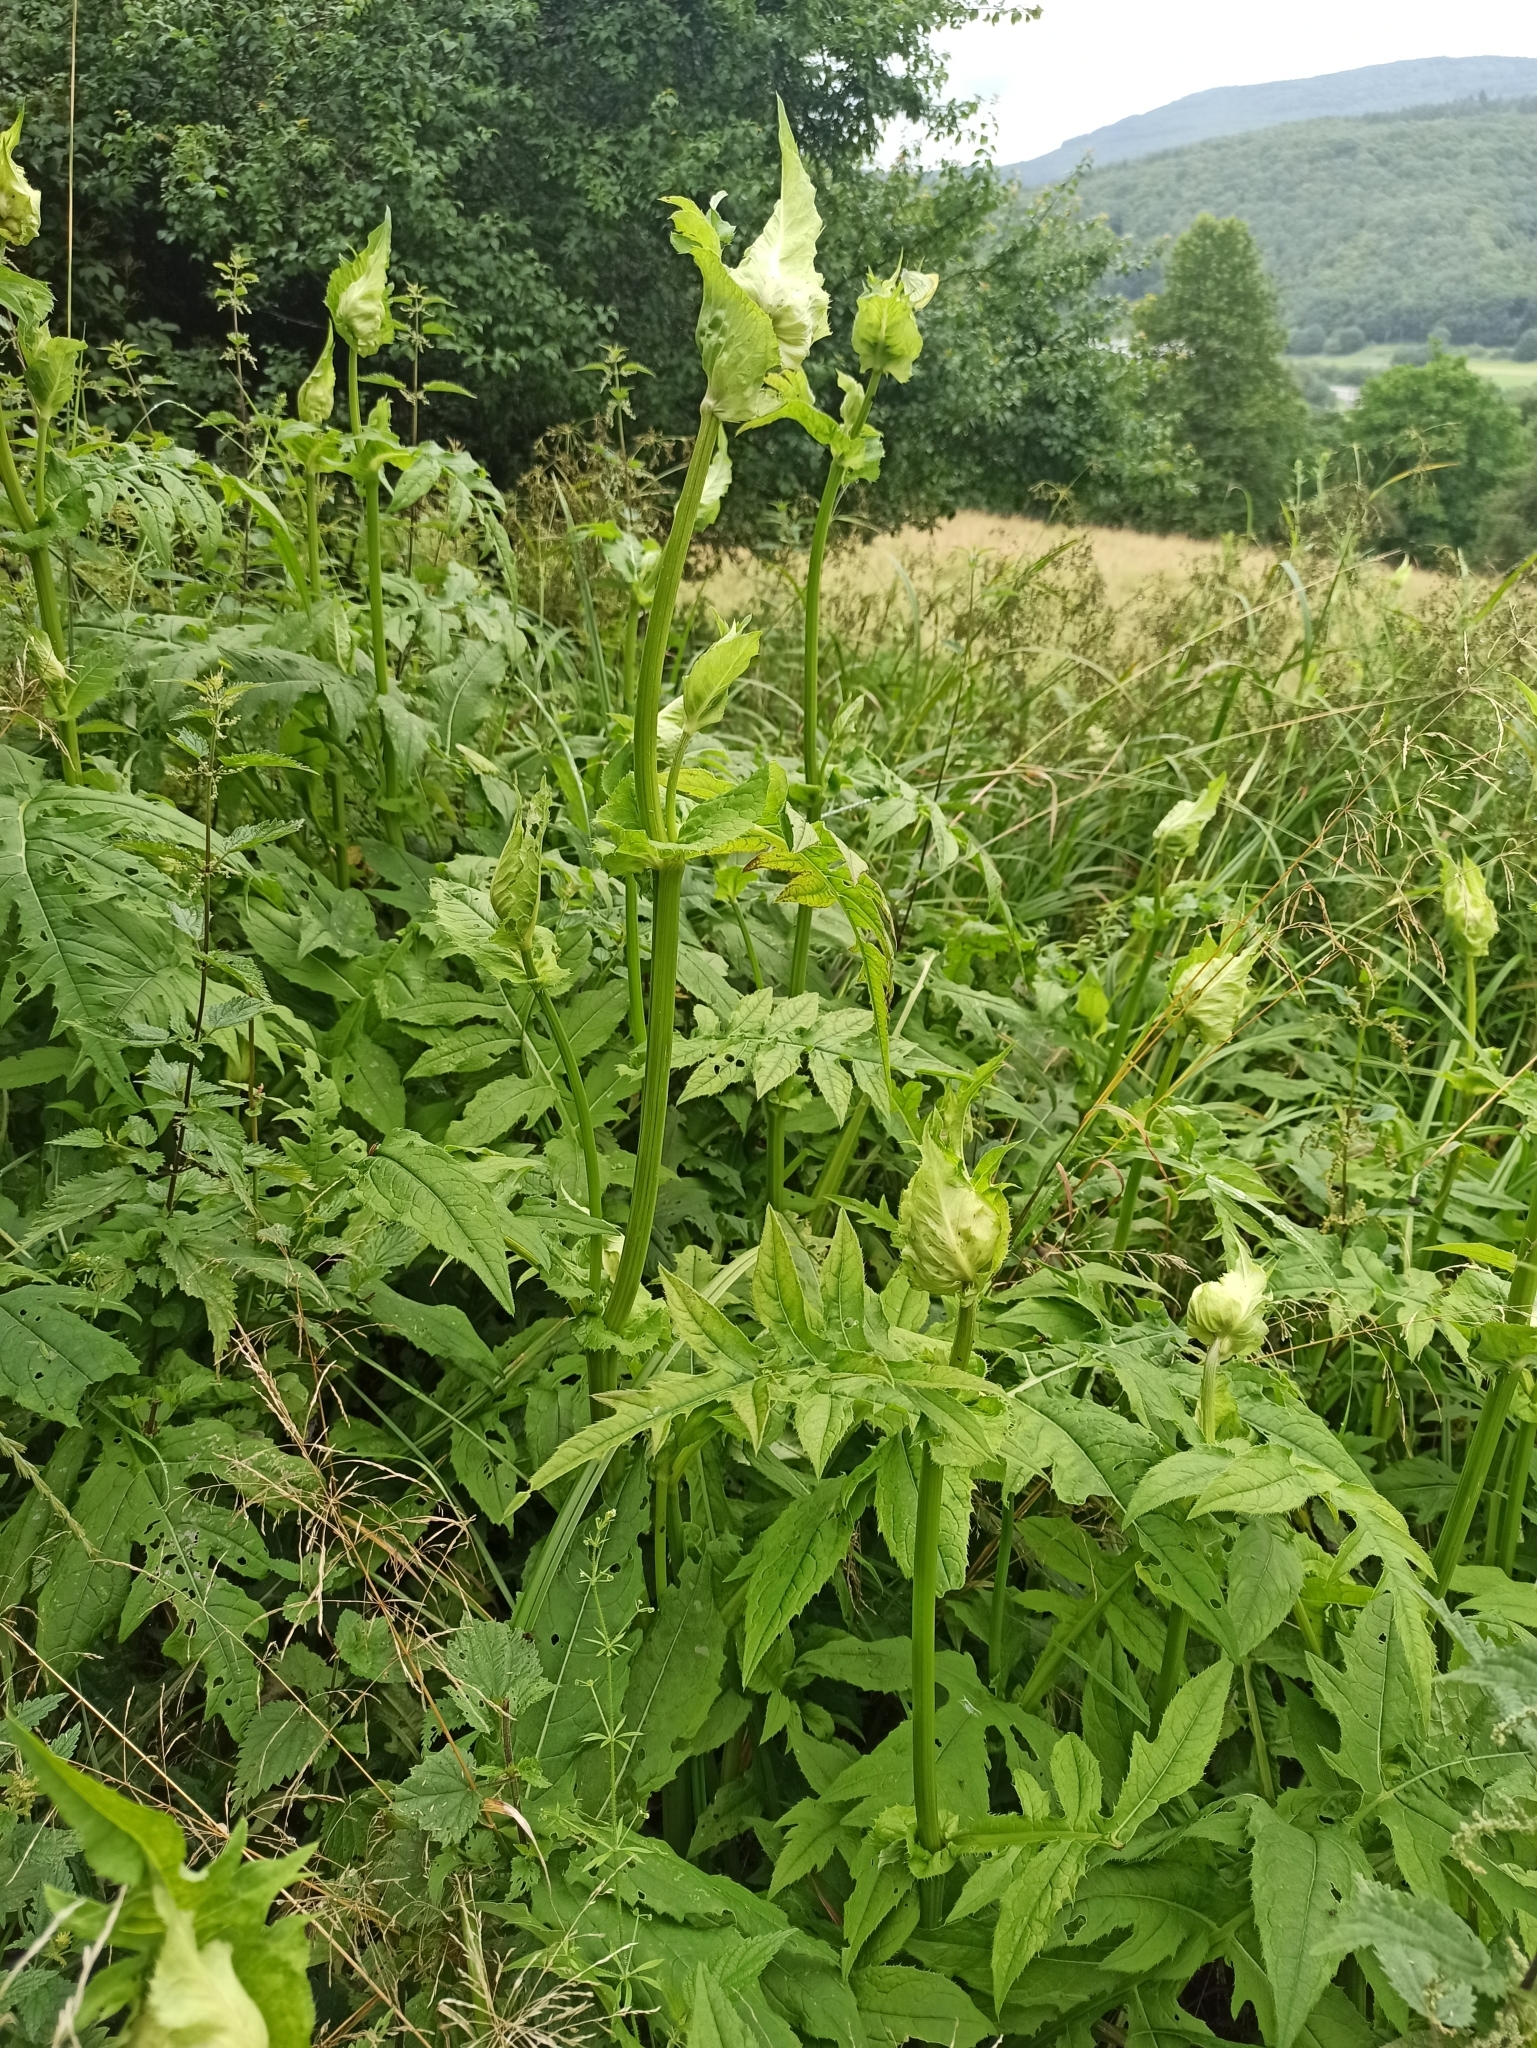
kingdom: Plantae
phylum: Tracheophyta
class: Magnoliopsida
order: Asterales
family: Asteraceae
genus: Cirsium
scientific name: Cirsium oleraceum
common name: Cabbage thistle
